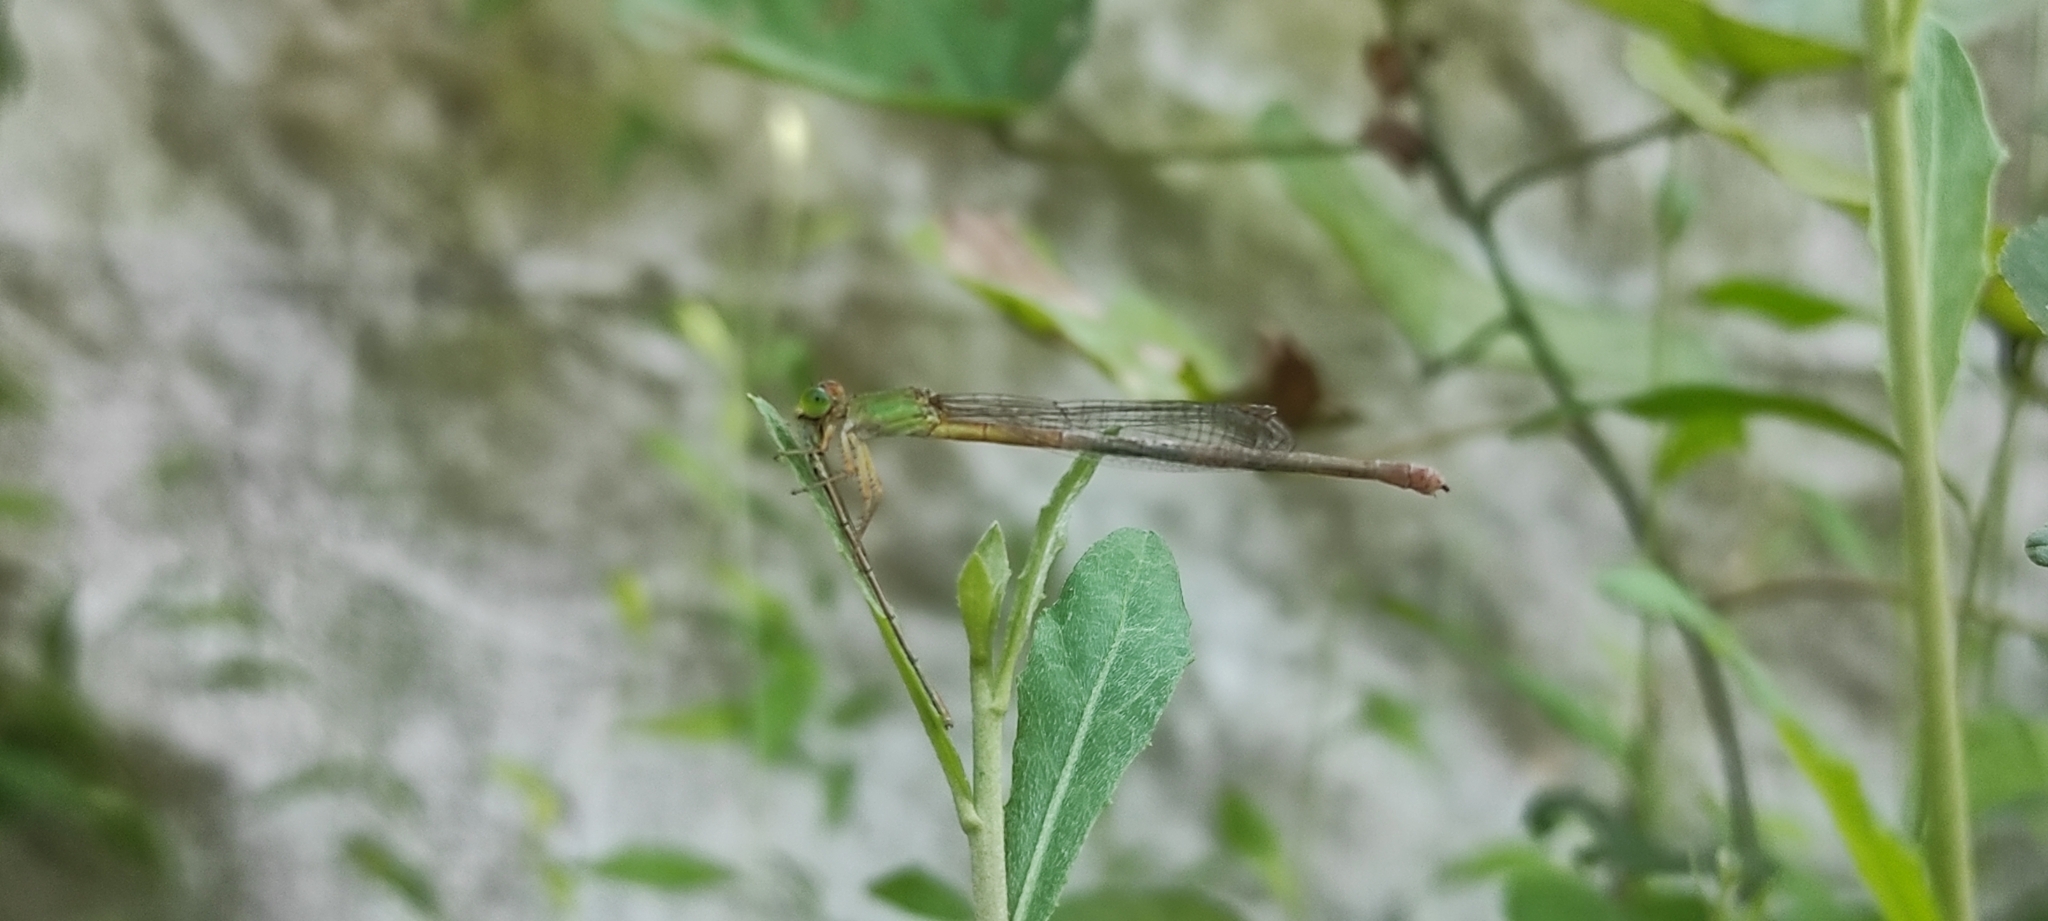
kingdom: Animalia
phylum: Arthropoda
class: Insecta
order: Odonata
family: Coenagrionidae
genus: Ceriagrion
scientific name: Ceriagrion coromandelianum
